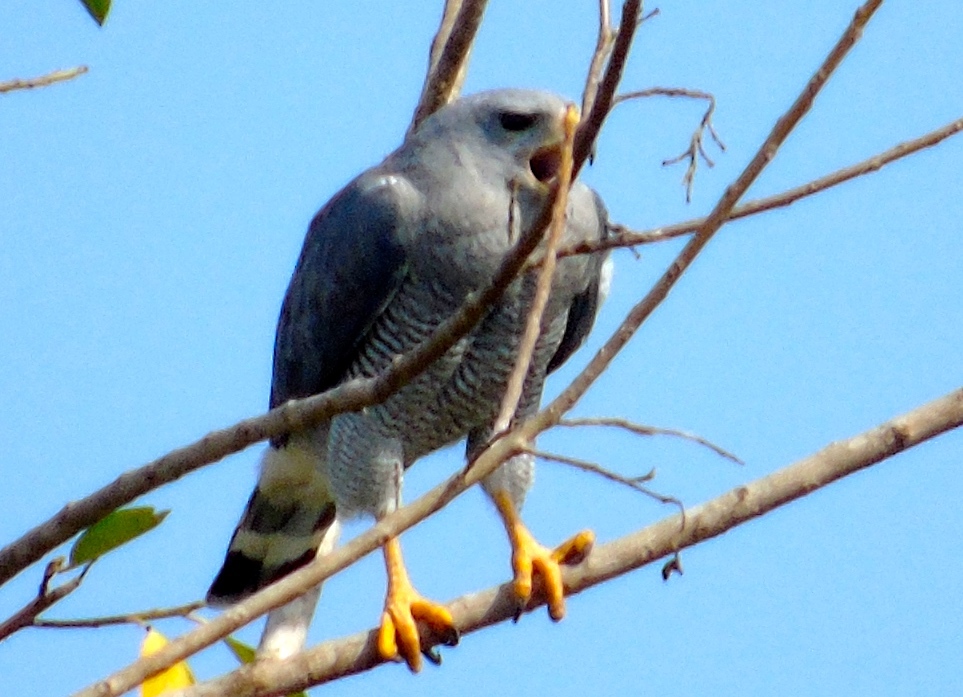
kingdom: Animalia
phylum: Chordata
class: Aves
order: Accipitriformes
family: Accipitridae
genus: Buteo
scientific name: Buteo nitidus
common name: Grey-lined hawk
